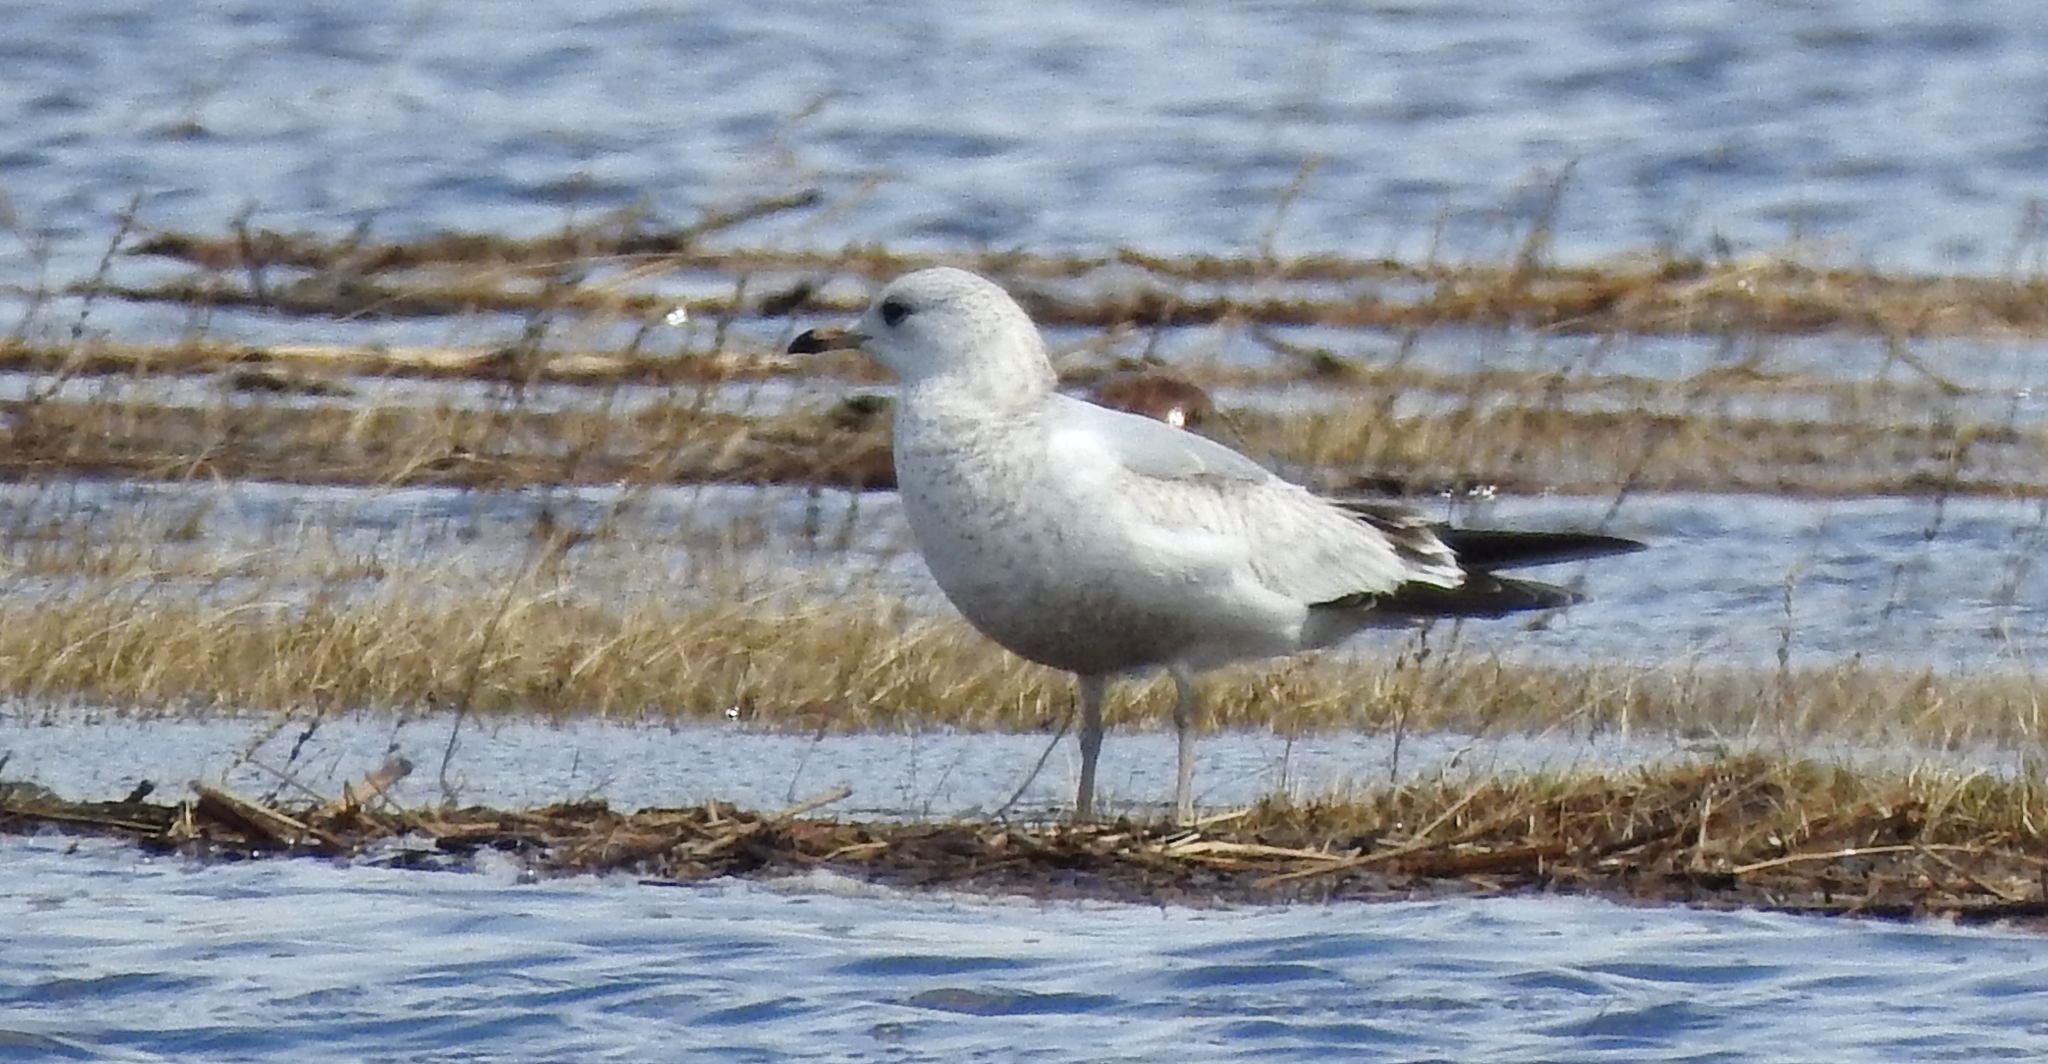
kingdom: Animalia
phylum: Chordata
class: Aves
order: Charadriiformes
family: Laridae
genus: Larus
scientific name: Larus canus
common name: Mew gull
